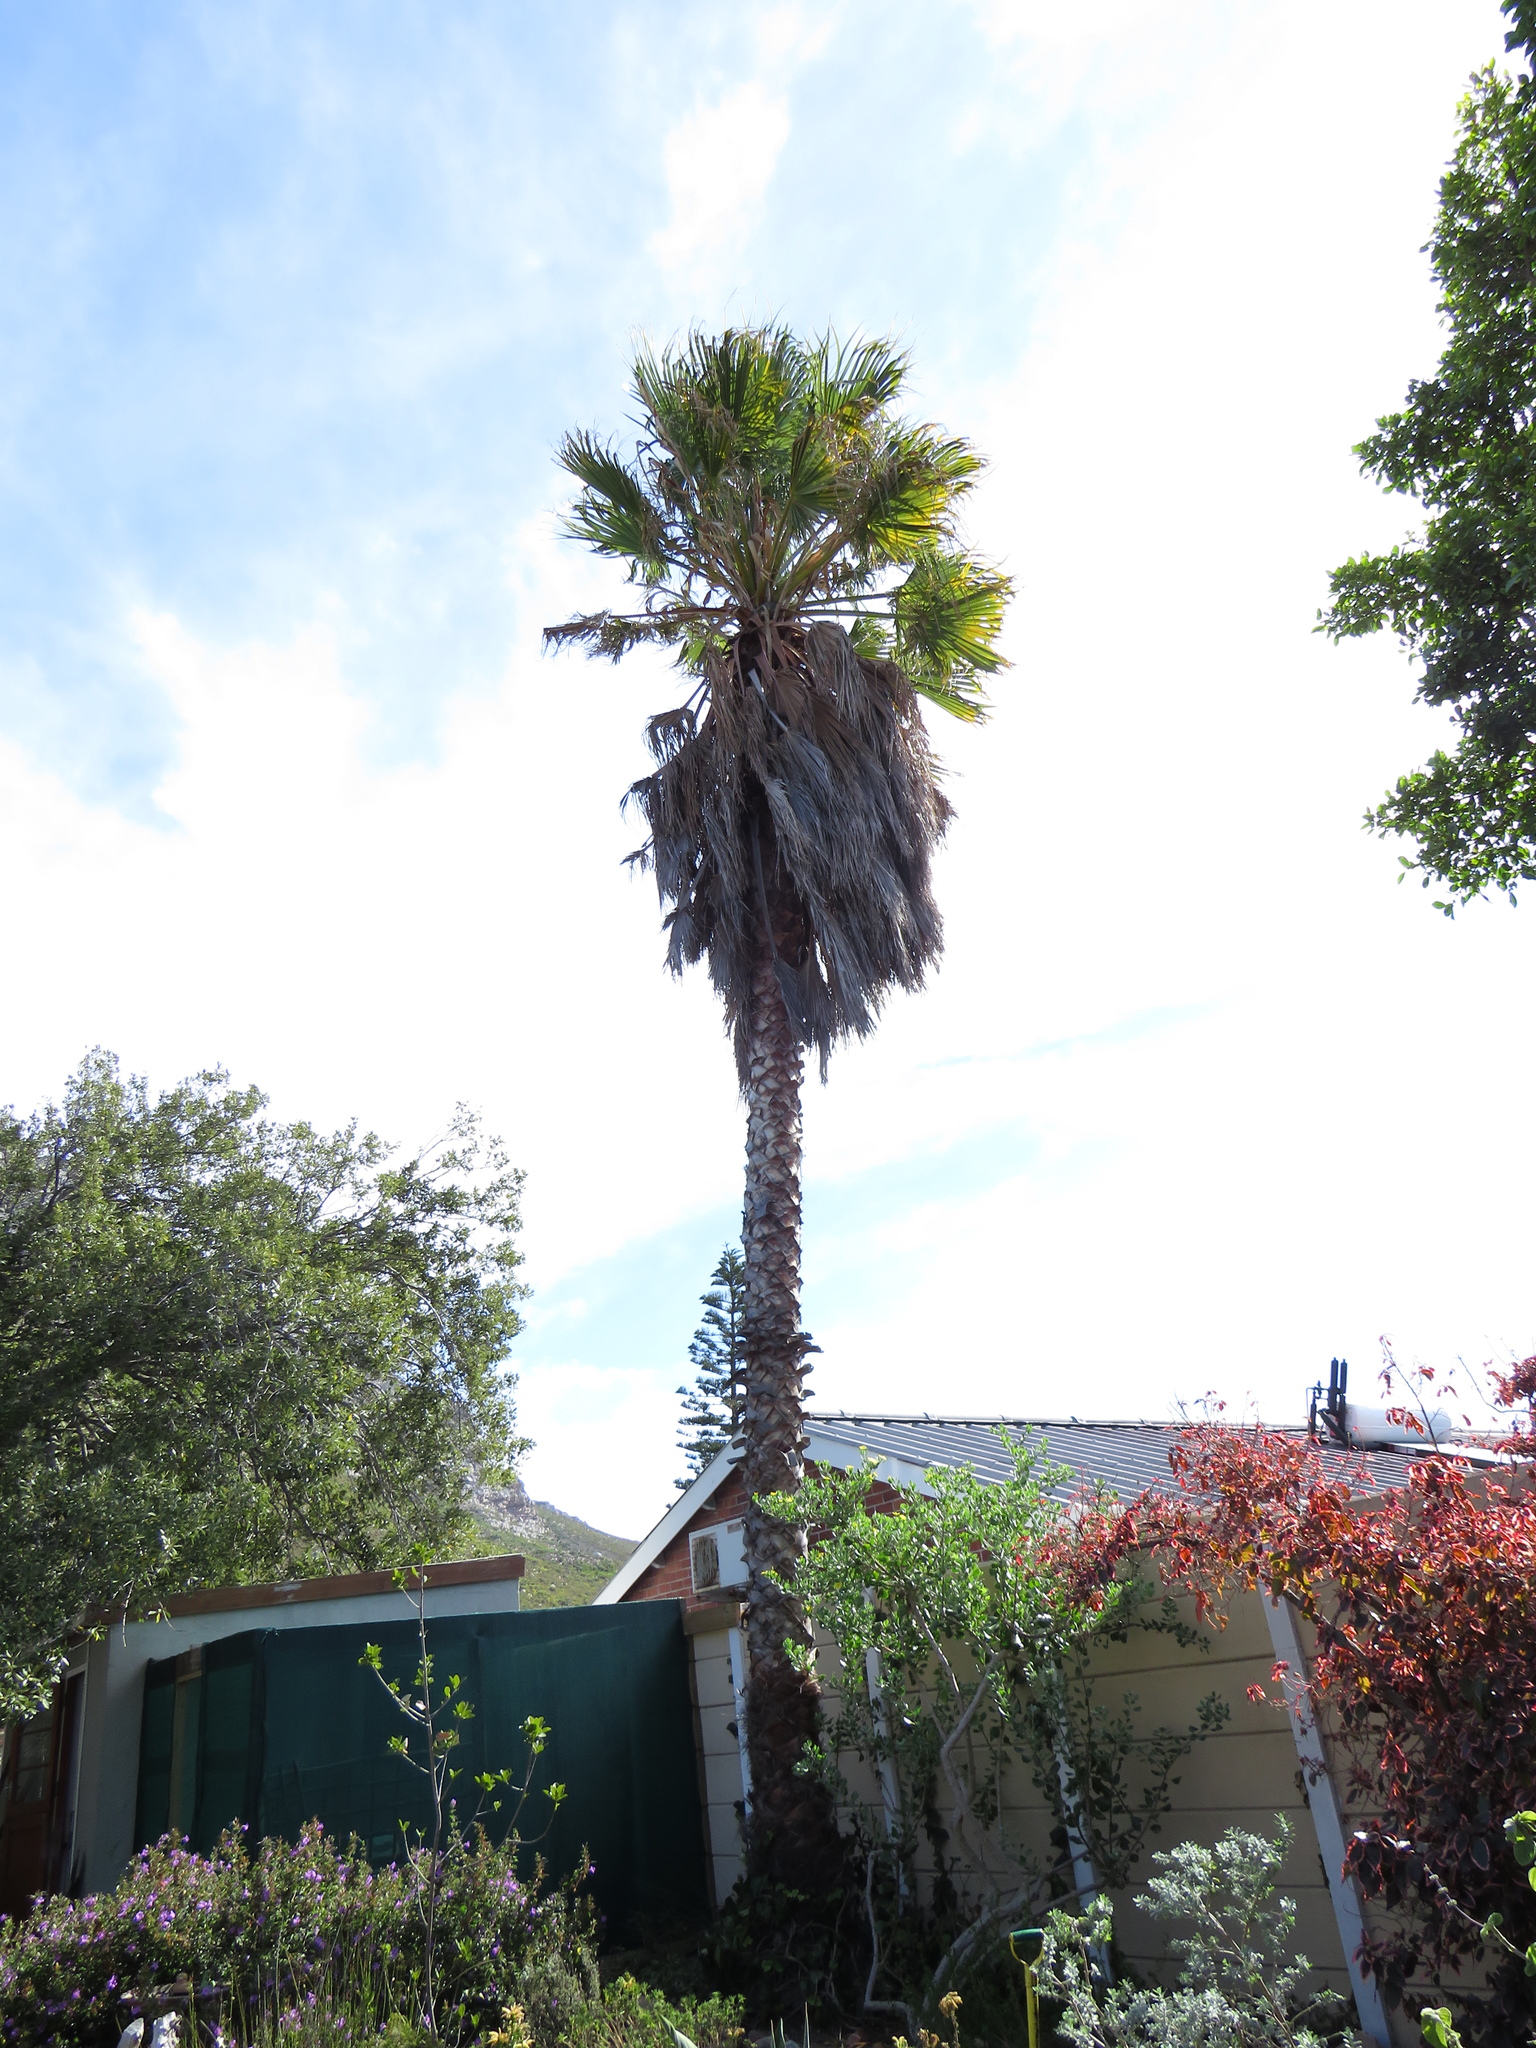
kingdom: Animalia
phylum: Chordata
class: Mammalia
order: Rodentia
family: Sciuridae
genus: Sciurus
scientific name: Sciurus carolinensis
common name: Eastern gray squirrel
